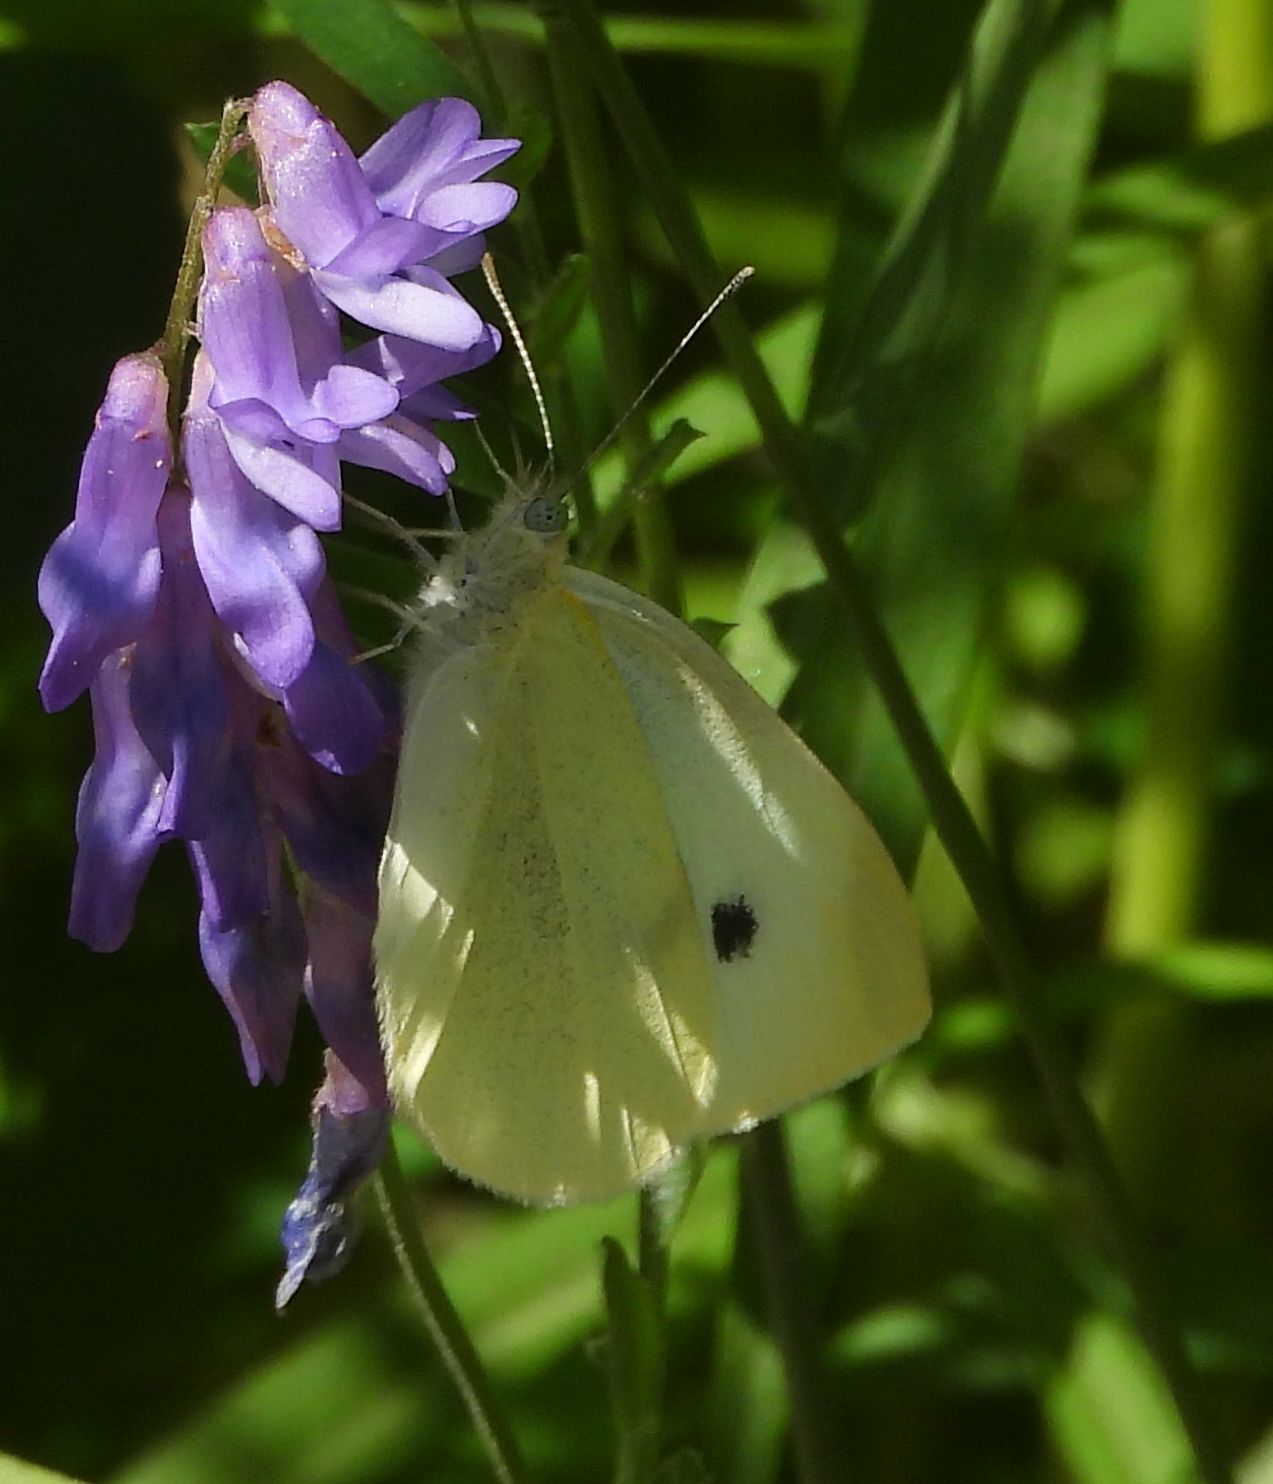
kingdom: Animalia
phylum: Arthropoda
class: Insecta
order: Lepidoptera
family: Pieridae
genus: Pieris
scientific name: Pieris rapae
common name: Small white
